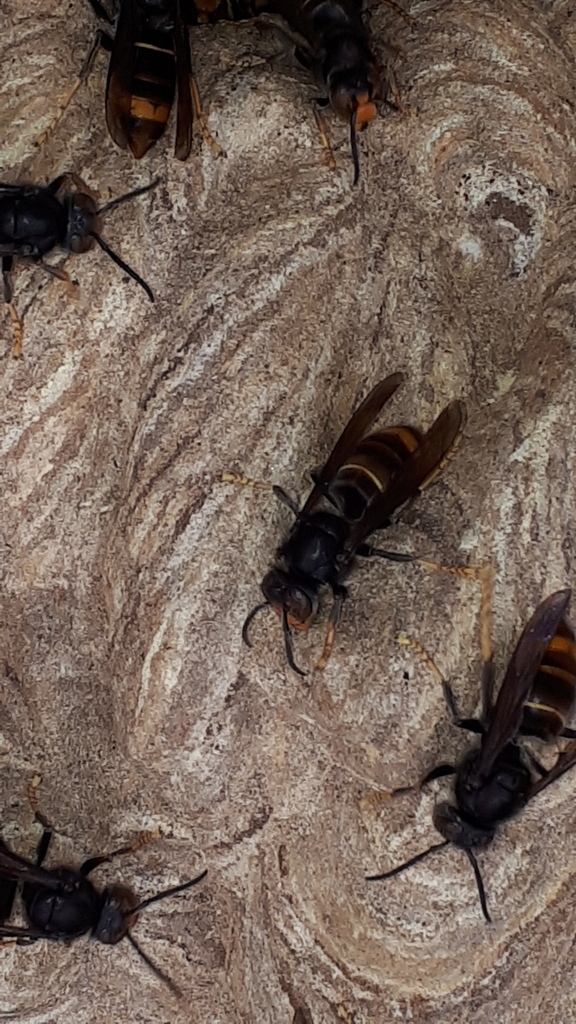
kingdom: Animalia
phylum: Arthropoda
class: Insecta
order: Hymenoptera
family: Vespidae
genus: Vespa
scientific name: Vespa velutina
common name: Asian hornet
